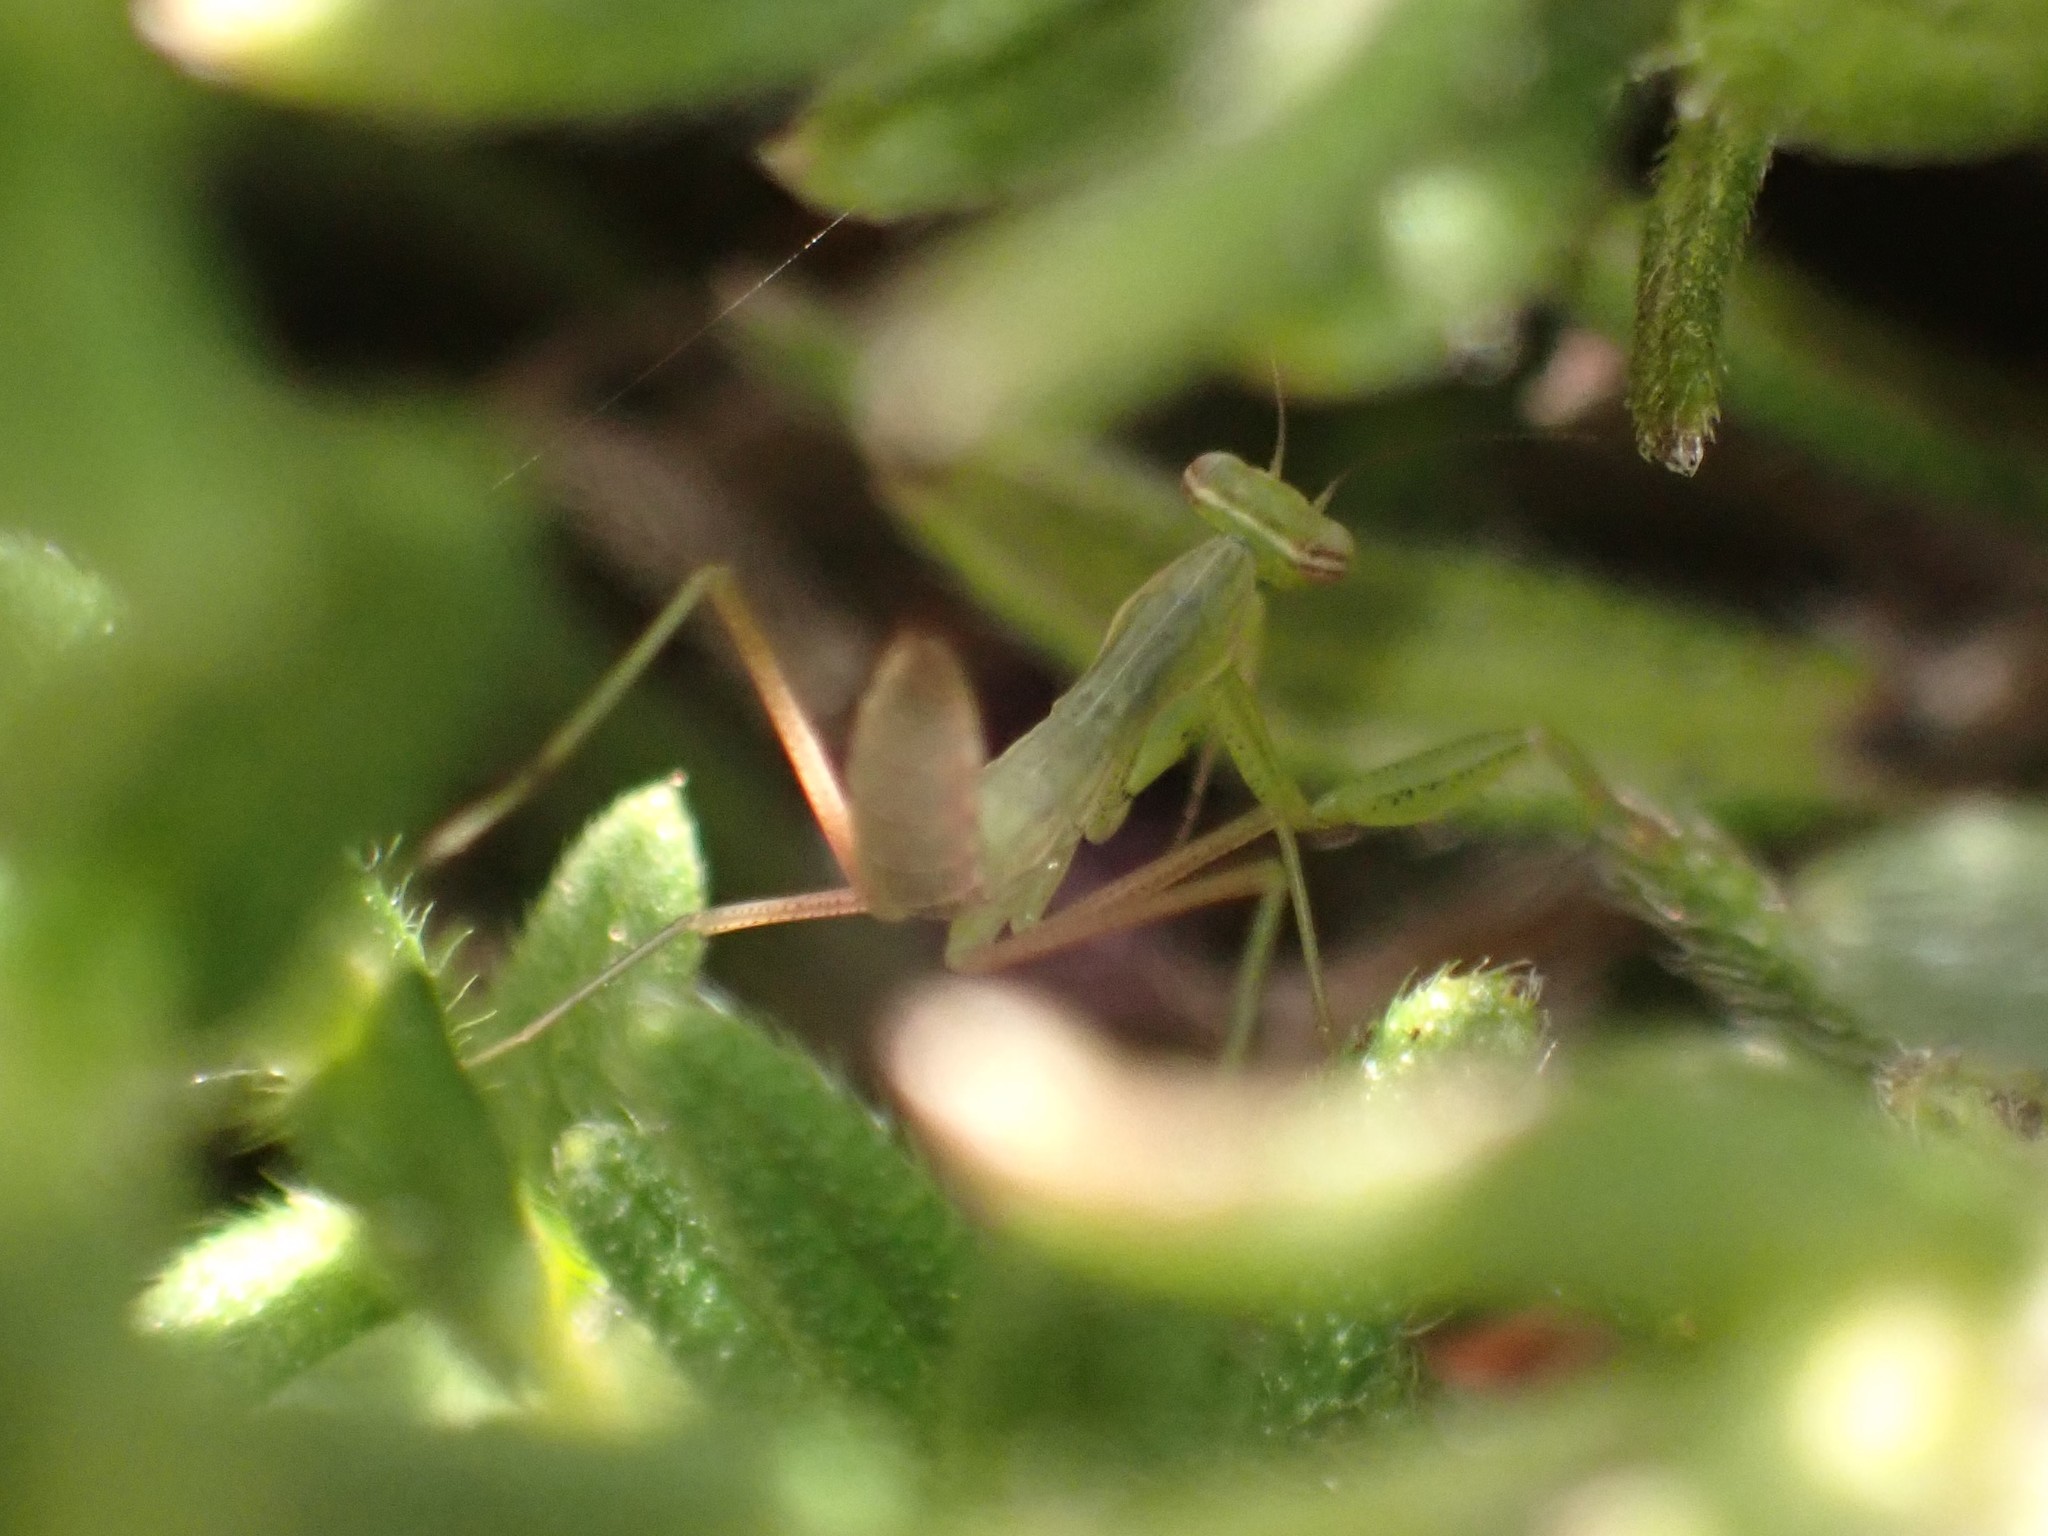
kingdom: Animalia
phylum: Arthropoda
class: Insecta
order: Mantodea
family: Mantidae
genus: Mantis
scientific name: Mantis religiosa
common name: Praying mantis
